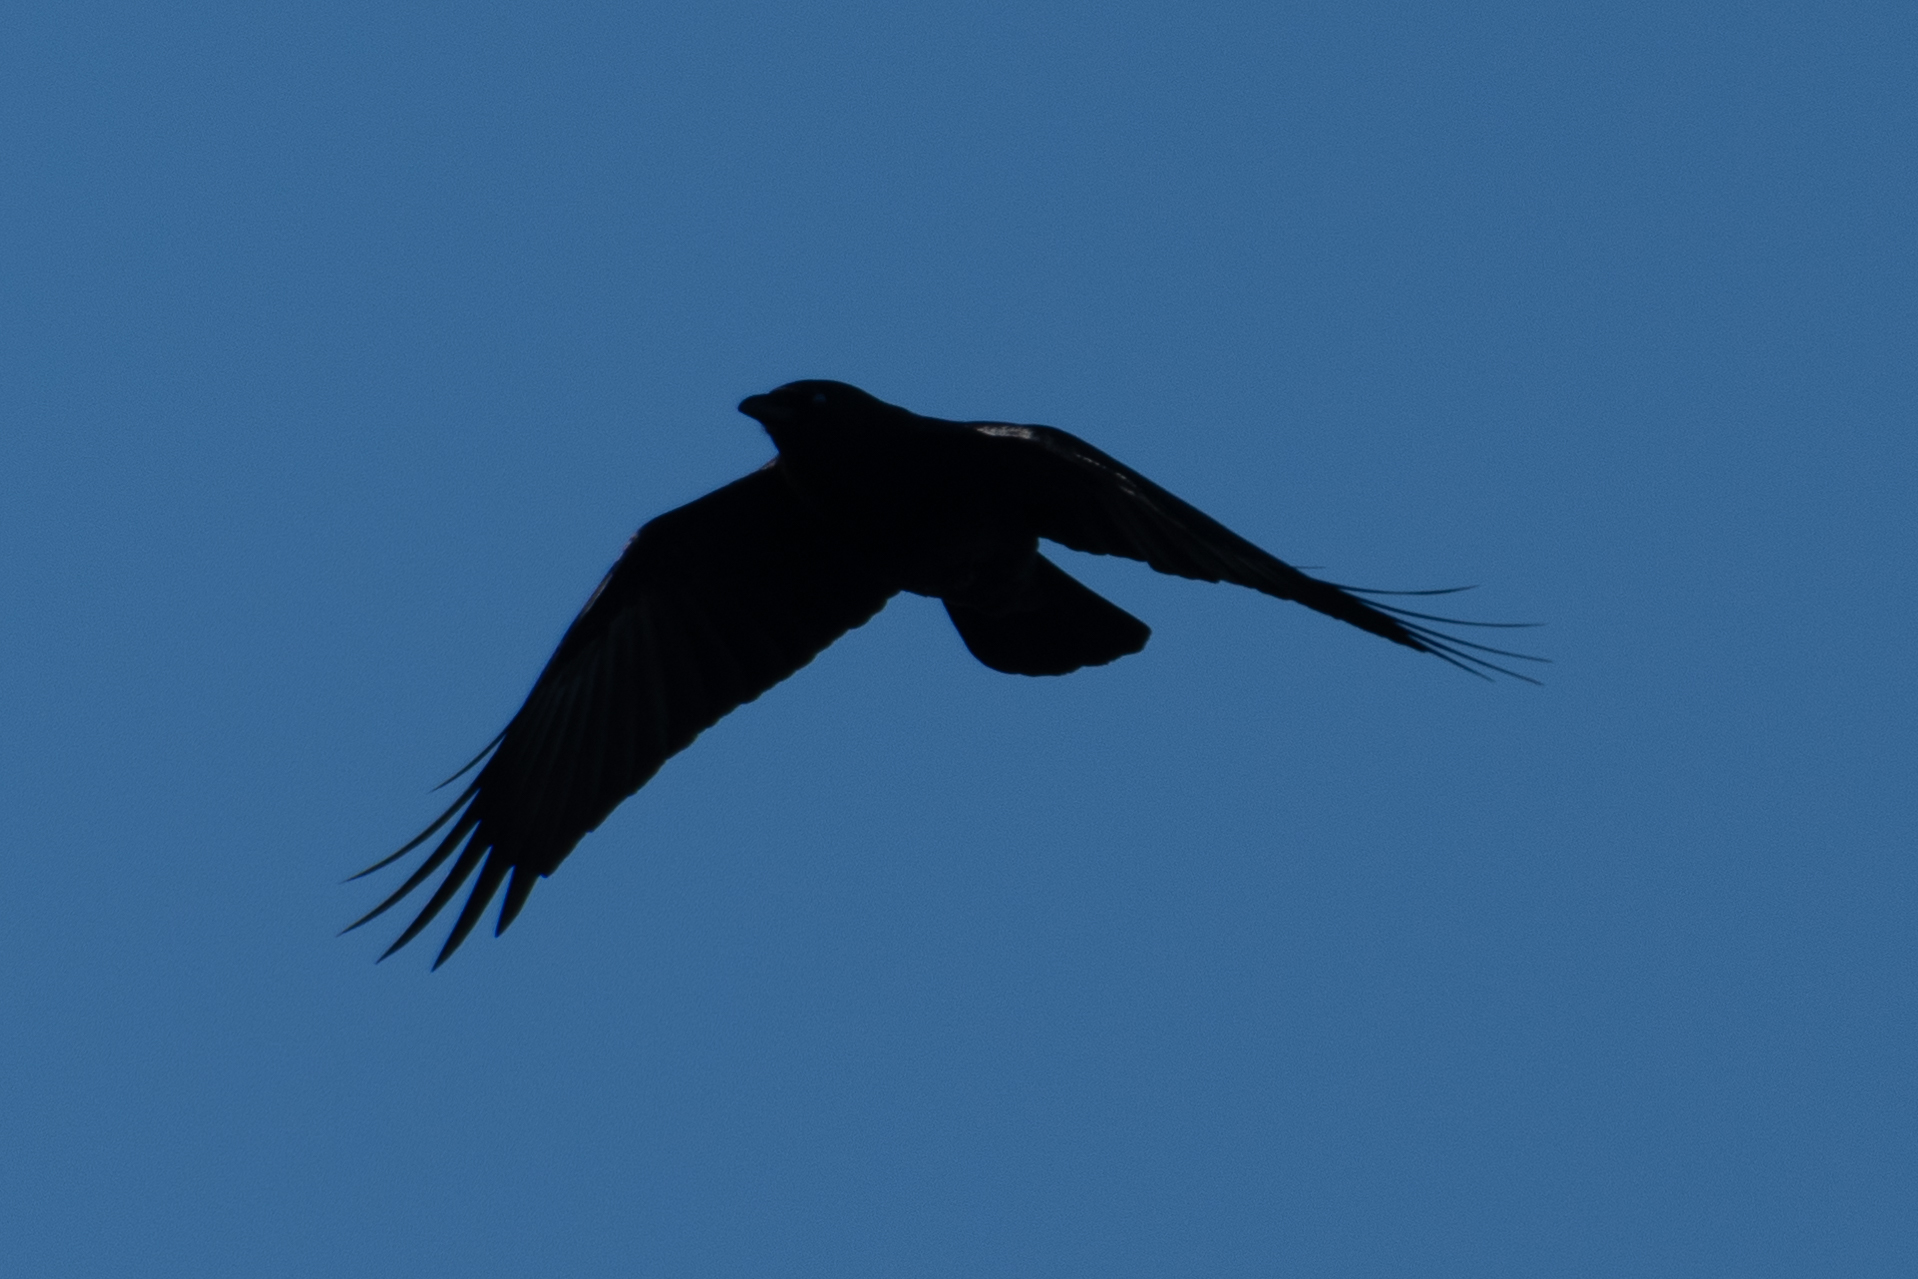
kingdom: Animalia
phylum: Chordata
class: Aves
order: Passeriformes
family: Corvidae
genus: Corvus
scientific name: Corvus brachyrhynchos
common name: American crow
